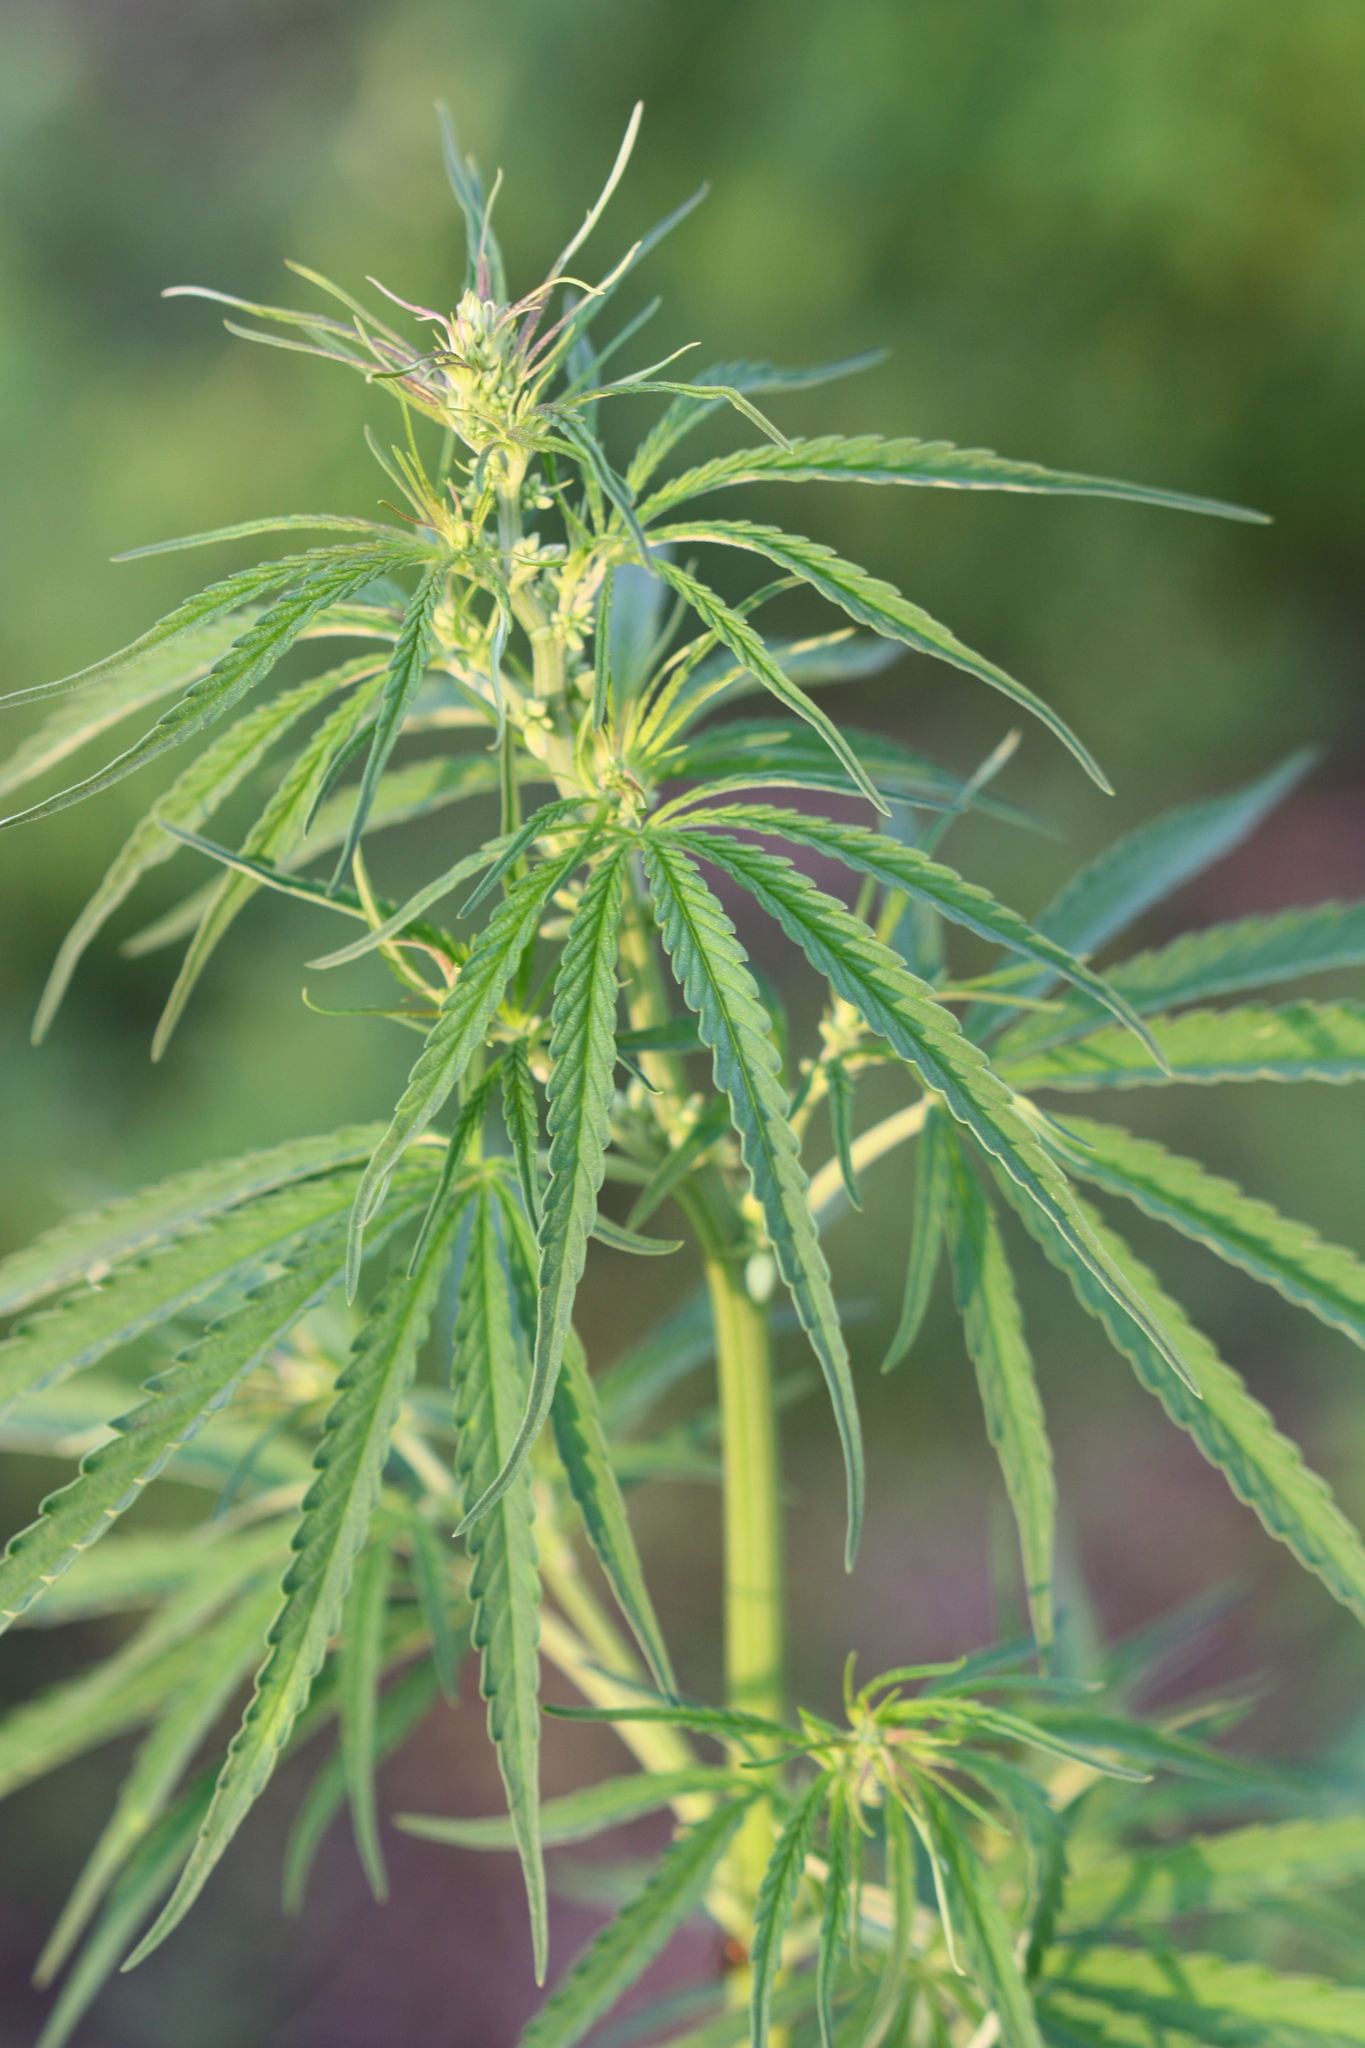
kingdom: Plantae
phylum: Tracheophyta
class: Magnoliopsida
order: Rosales
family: Cannabaceae
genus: Cannabis
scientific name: Cannabis sativa
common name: Hemp
